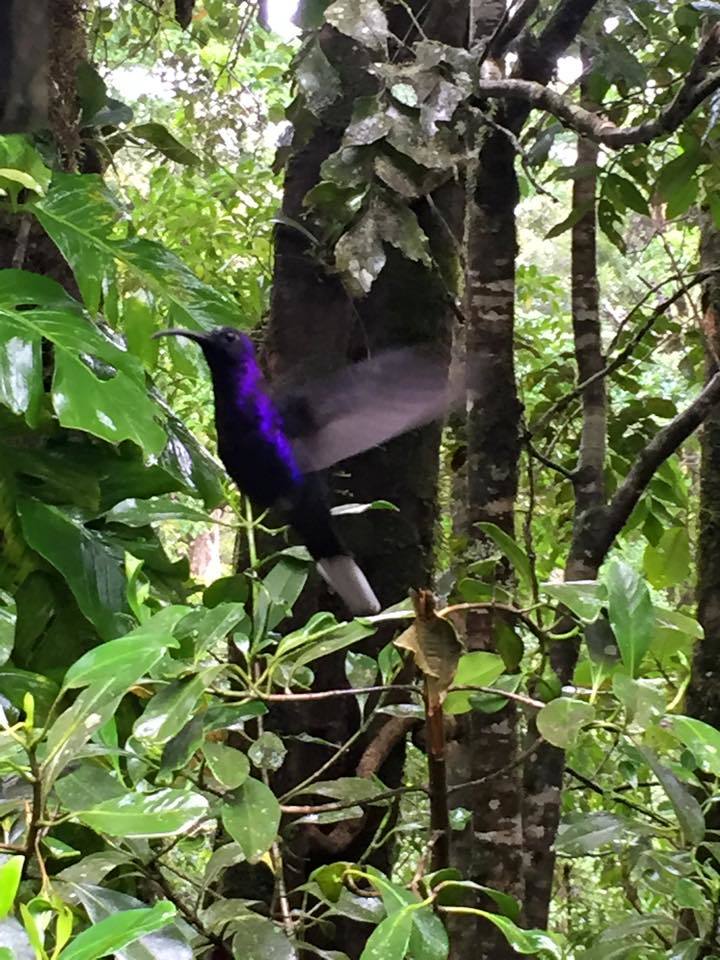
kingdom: Animalia
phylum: Chordata
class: Aves
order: Apodiformes
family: Trochilidae
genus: Campylopterus
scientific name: Campylopterus hemileucurus
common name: Violet sabrewing
